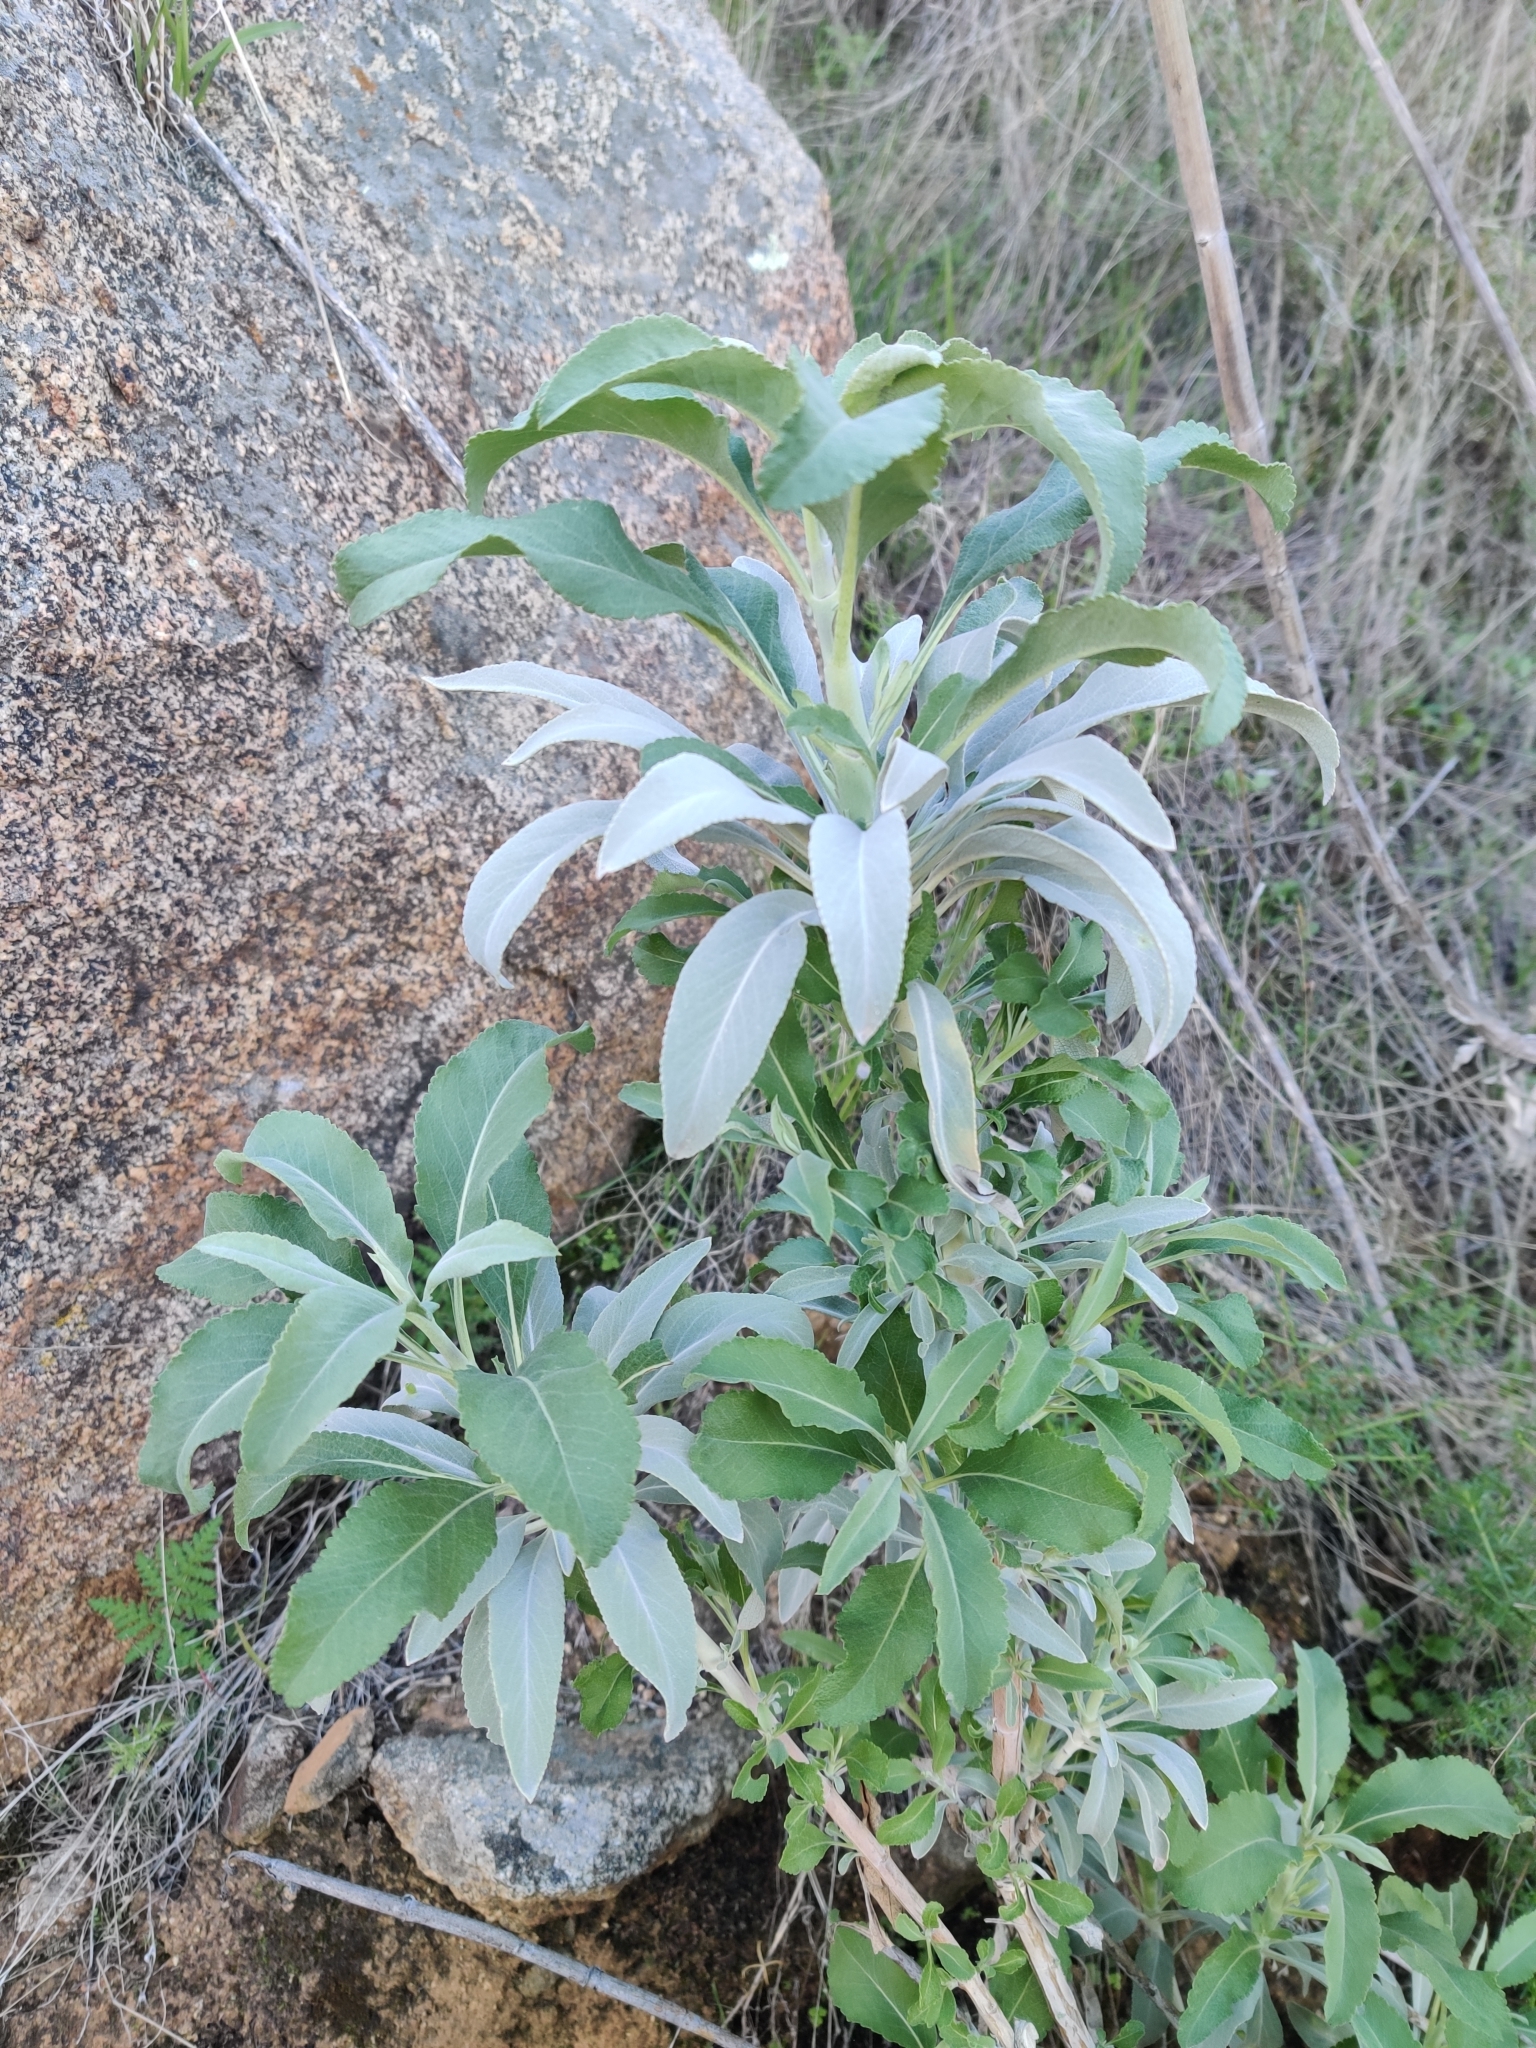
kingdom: Plantae
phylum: Tracheophyta
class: Magnoliopsida
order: Lamiales
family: Lamiaceae
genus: Salvia
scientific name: Salvia apiana
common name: White sage
